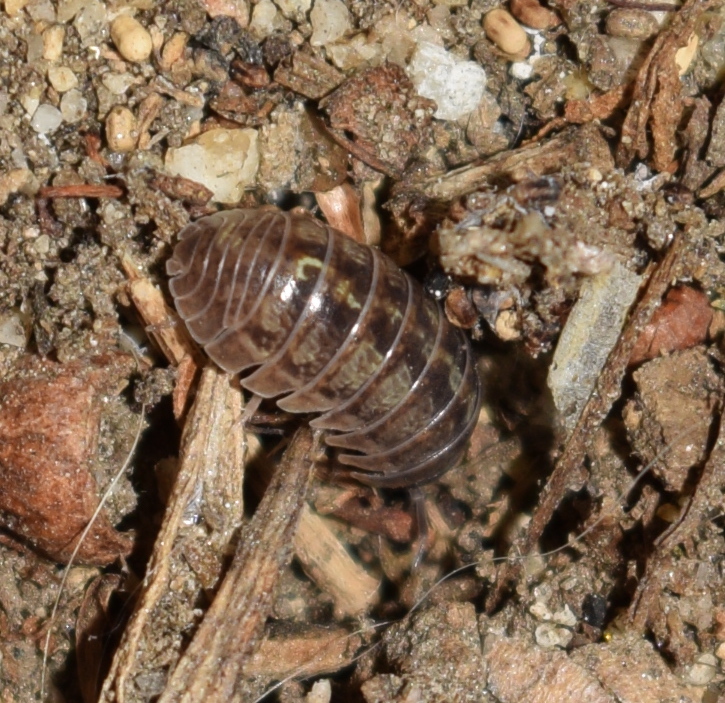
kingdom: Animalia
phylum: Arthropoda
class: Malacostraca
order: Isopoda
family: Armadillidiidae
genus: Armadillidium
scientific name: Armadillidium vulgare
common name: Common pill woodlouse
